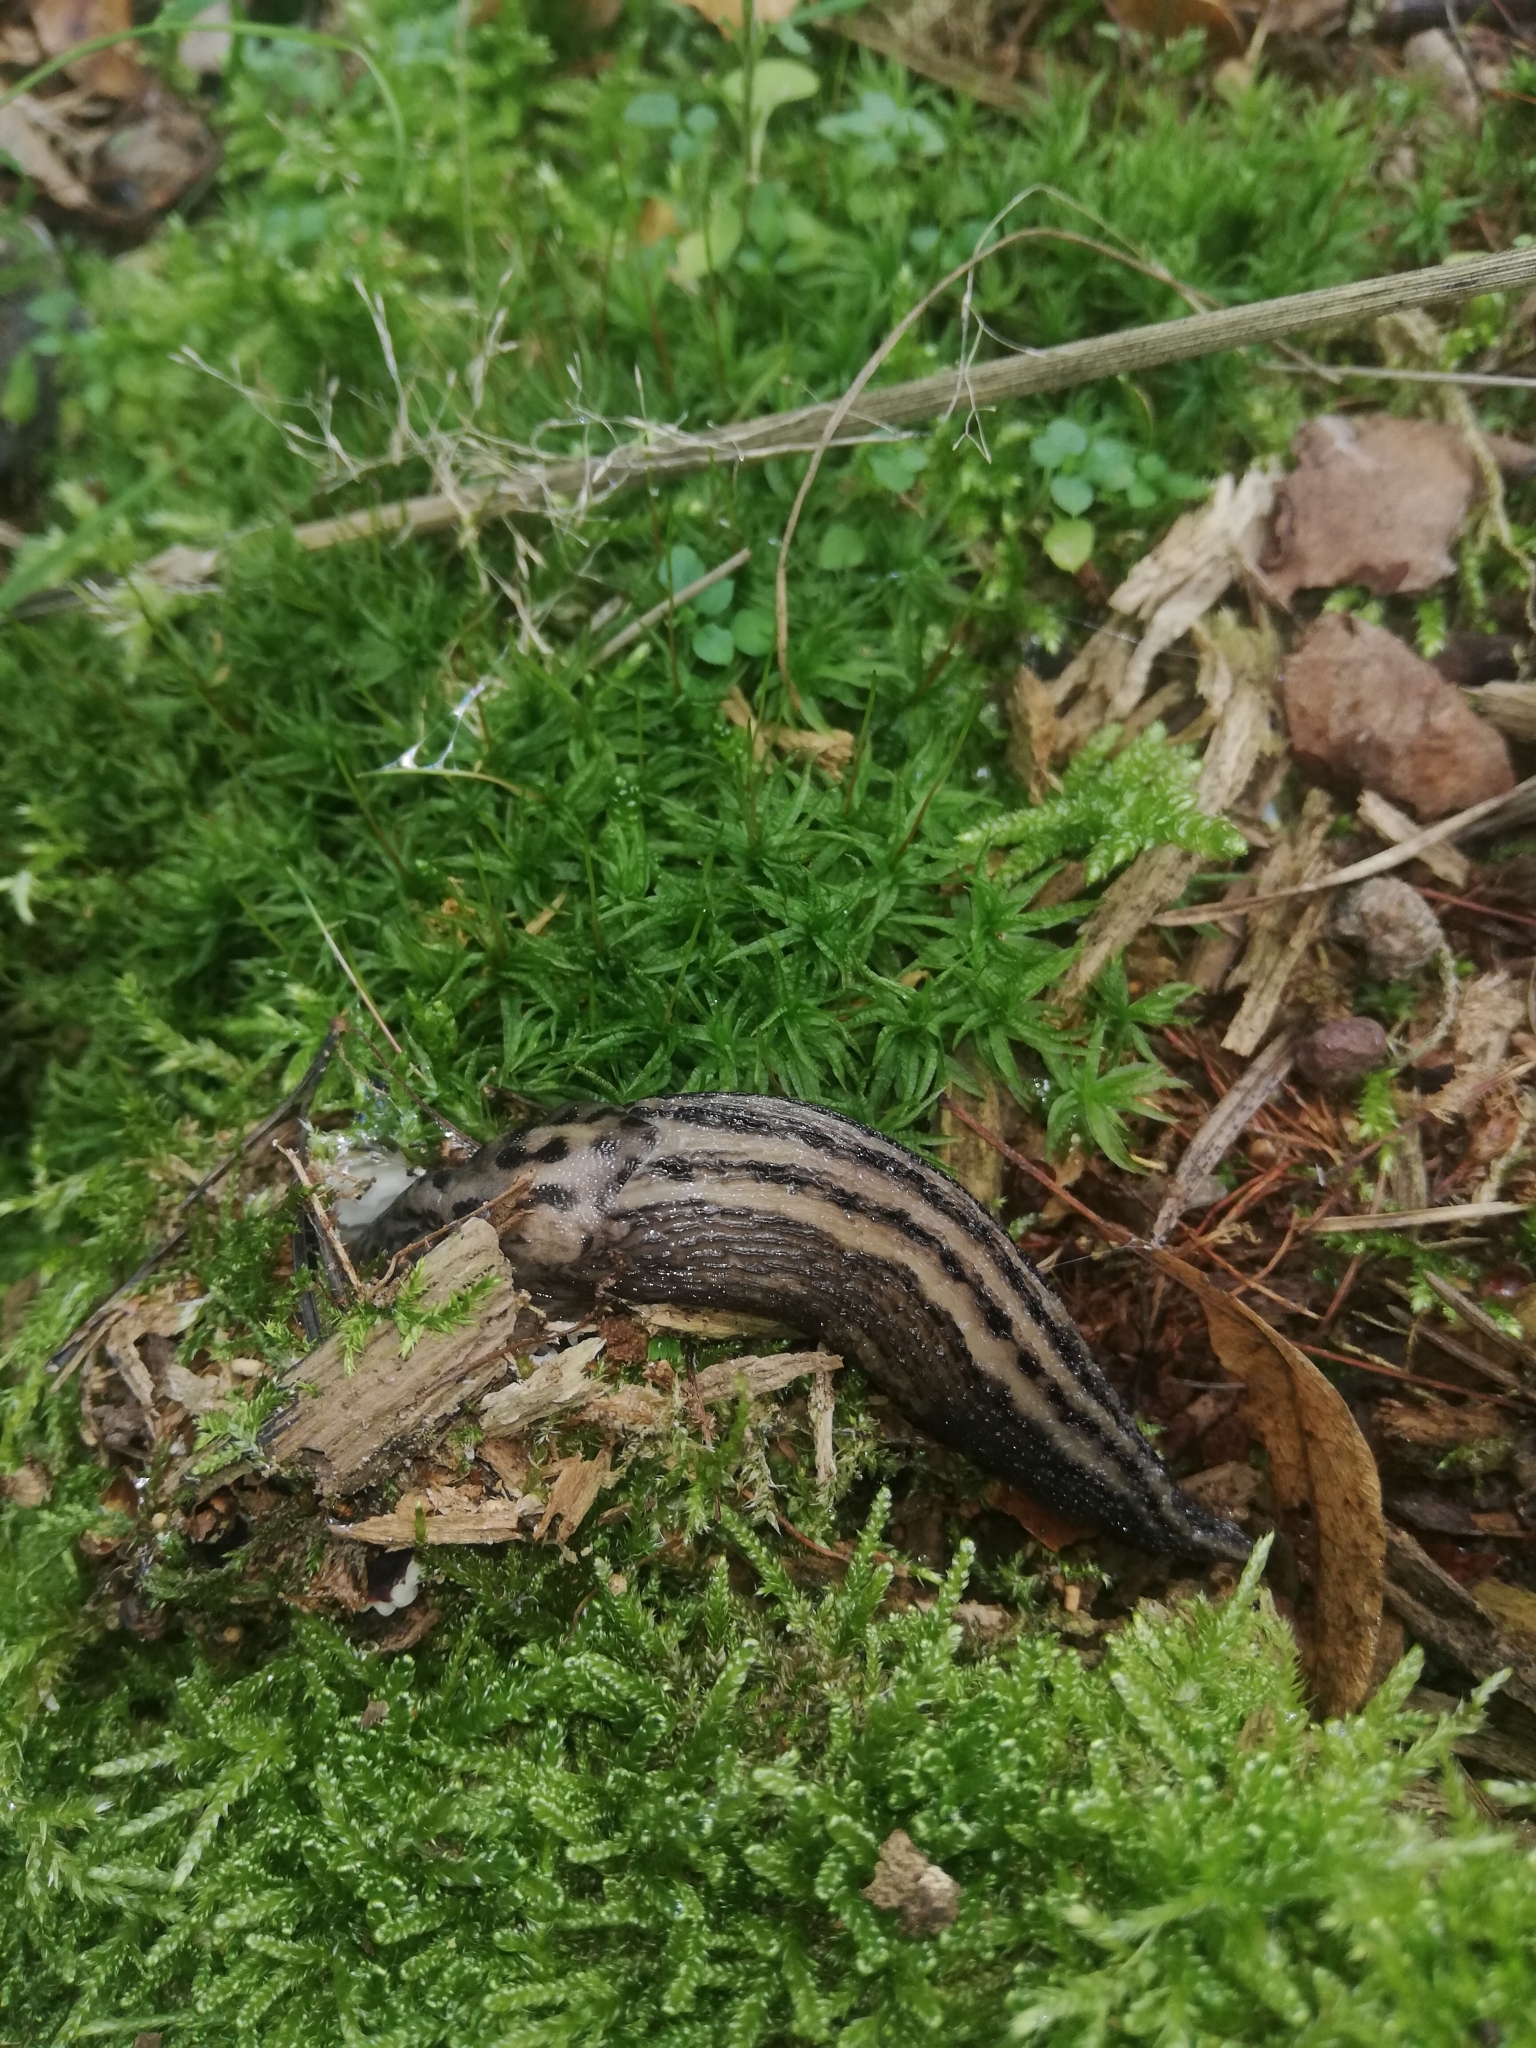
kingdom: Animalia
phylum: Mollusca
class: Gastropoda
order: Stylommatophora
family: Limacidae
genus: Limax
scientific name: Limax maximus
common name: Great grey slug
